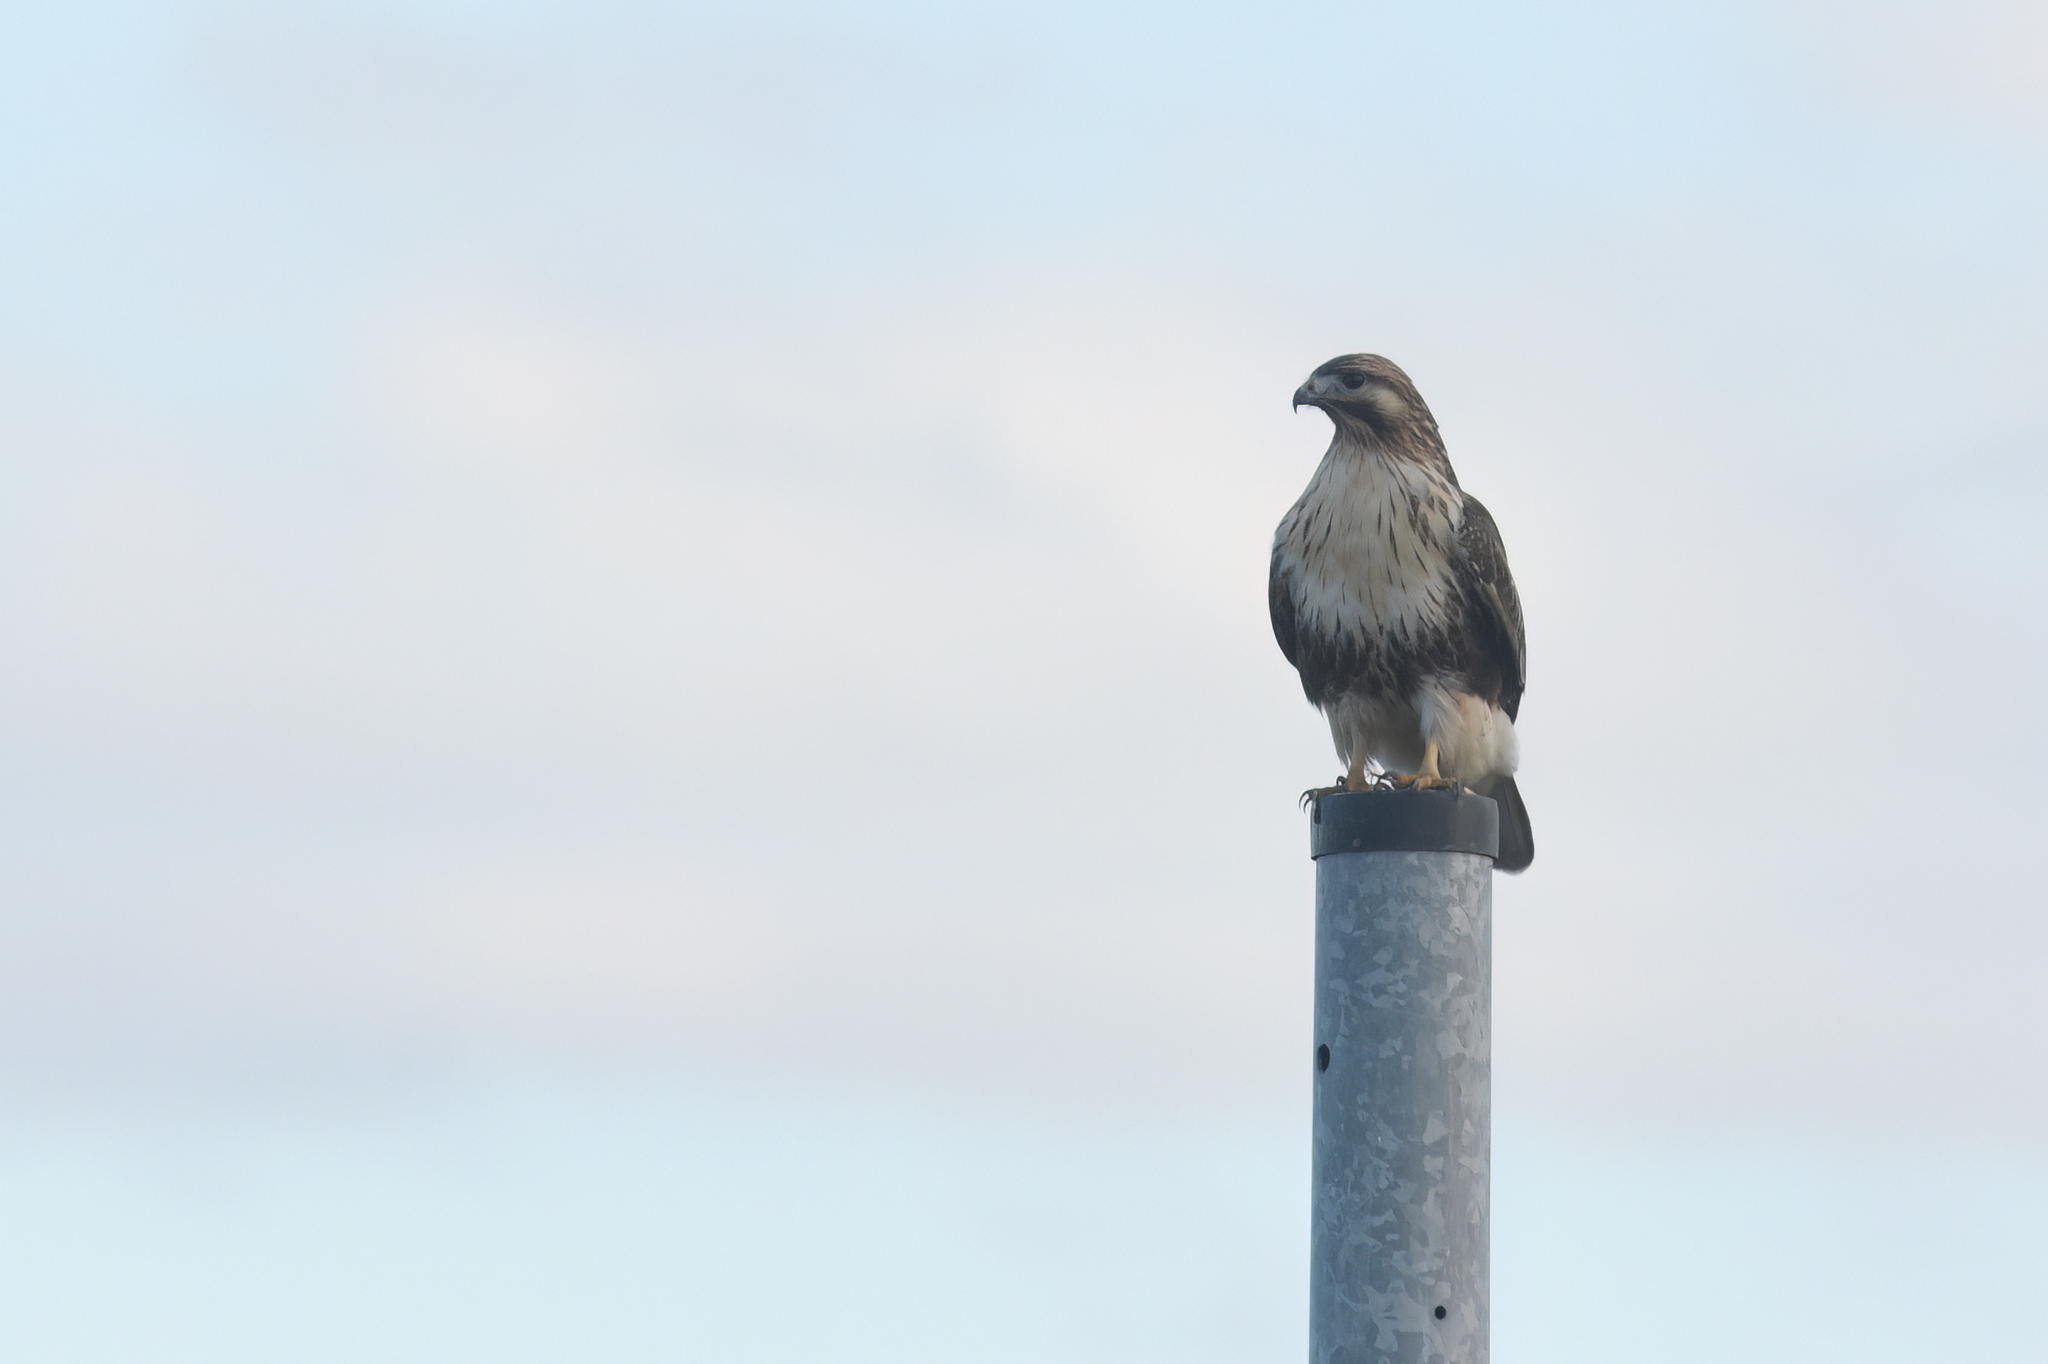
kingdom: Animalia
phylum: Chordata
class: Aves
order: Accipitriformes
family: Accipitridae
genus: Buteo
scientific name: Buteo japonicus
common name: Eastern buzzard
